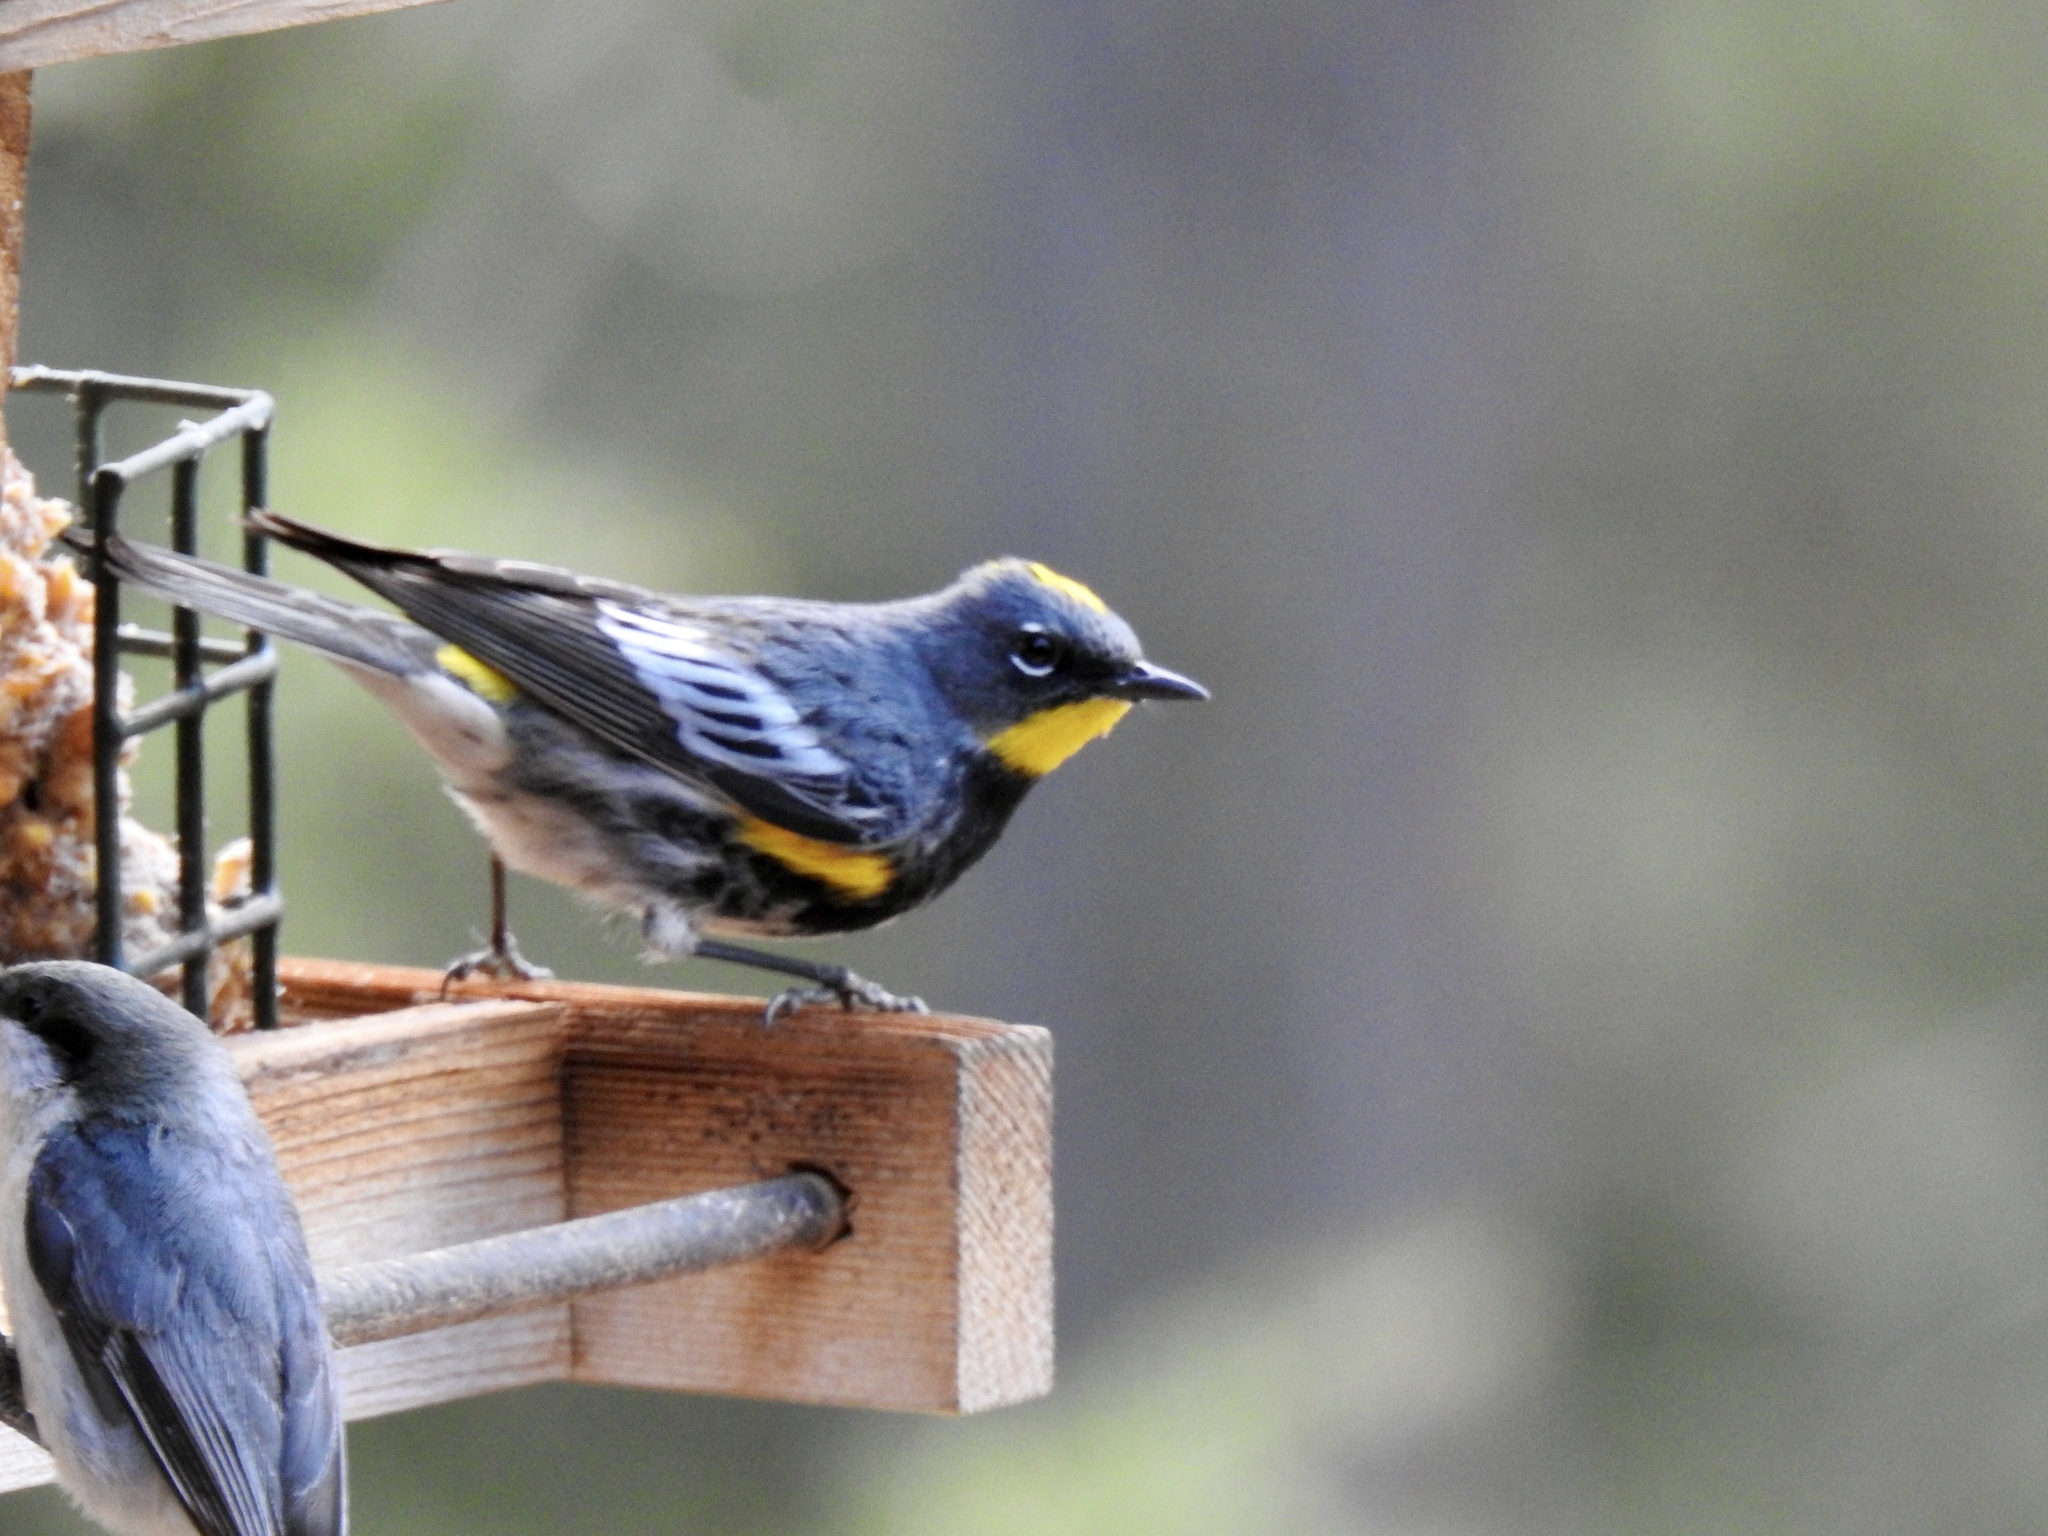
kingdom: Animalia
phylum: Chordata
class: Aves
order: Passeriformes
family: Parulidae
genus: Setophaga
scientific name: Setophaga auduboni
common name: Audubon's warbler
